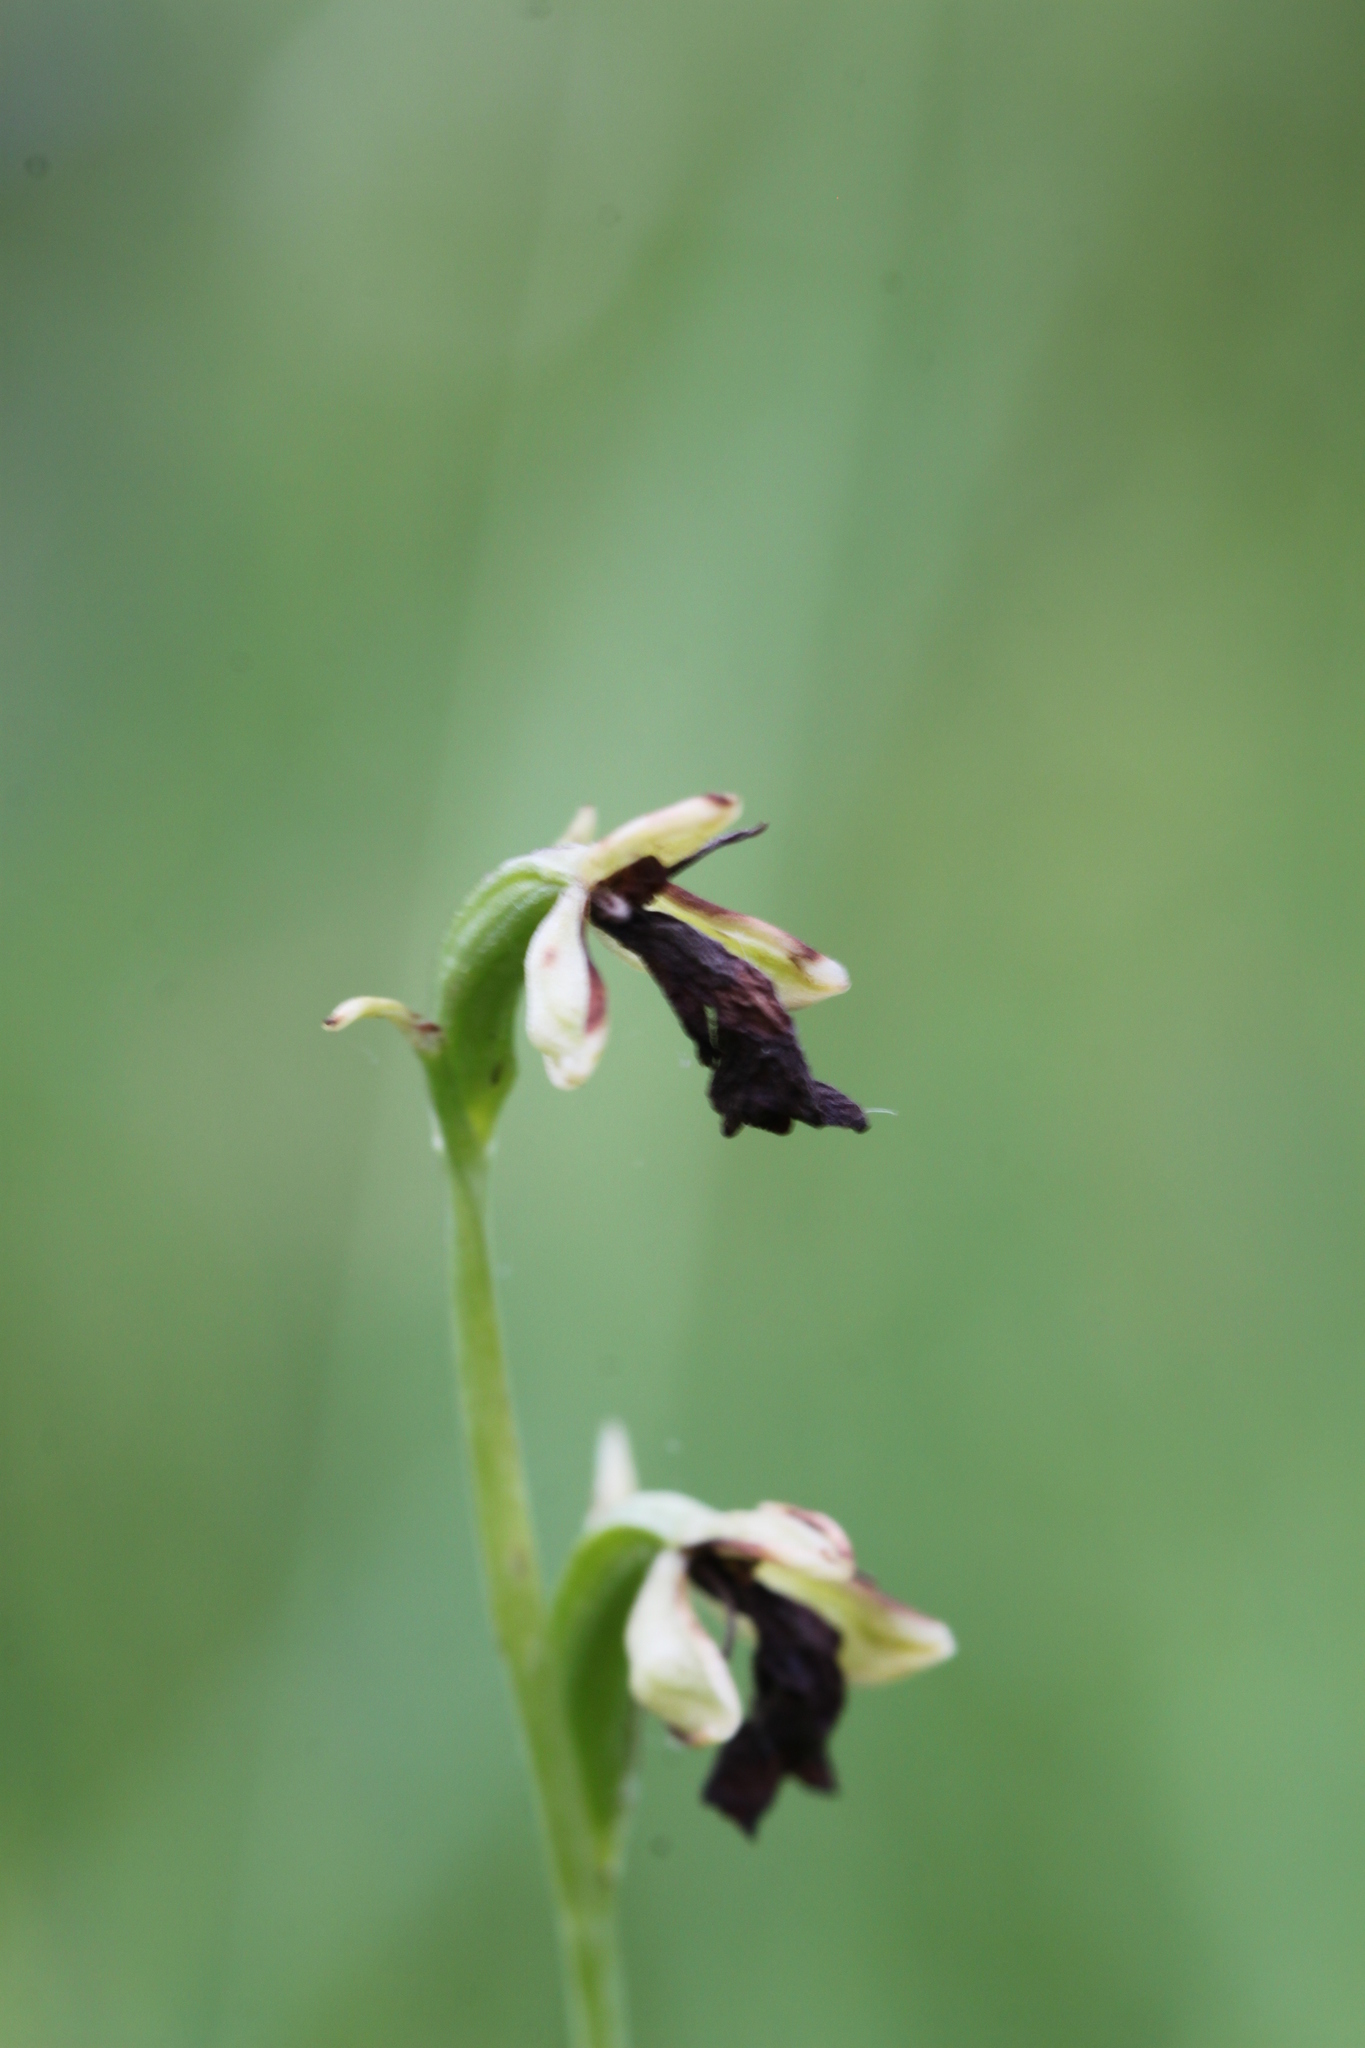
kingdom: Plantae
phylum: Tracheophyta
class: Liliopsida
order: Asparagales
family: Orchidaceae
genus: Ophrys
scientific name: Ophrys insectifera
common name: Fly orchid
